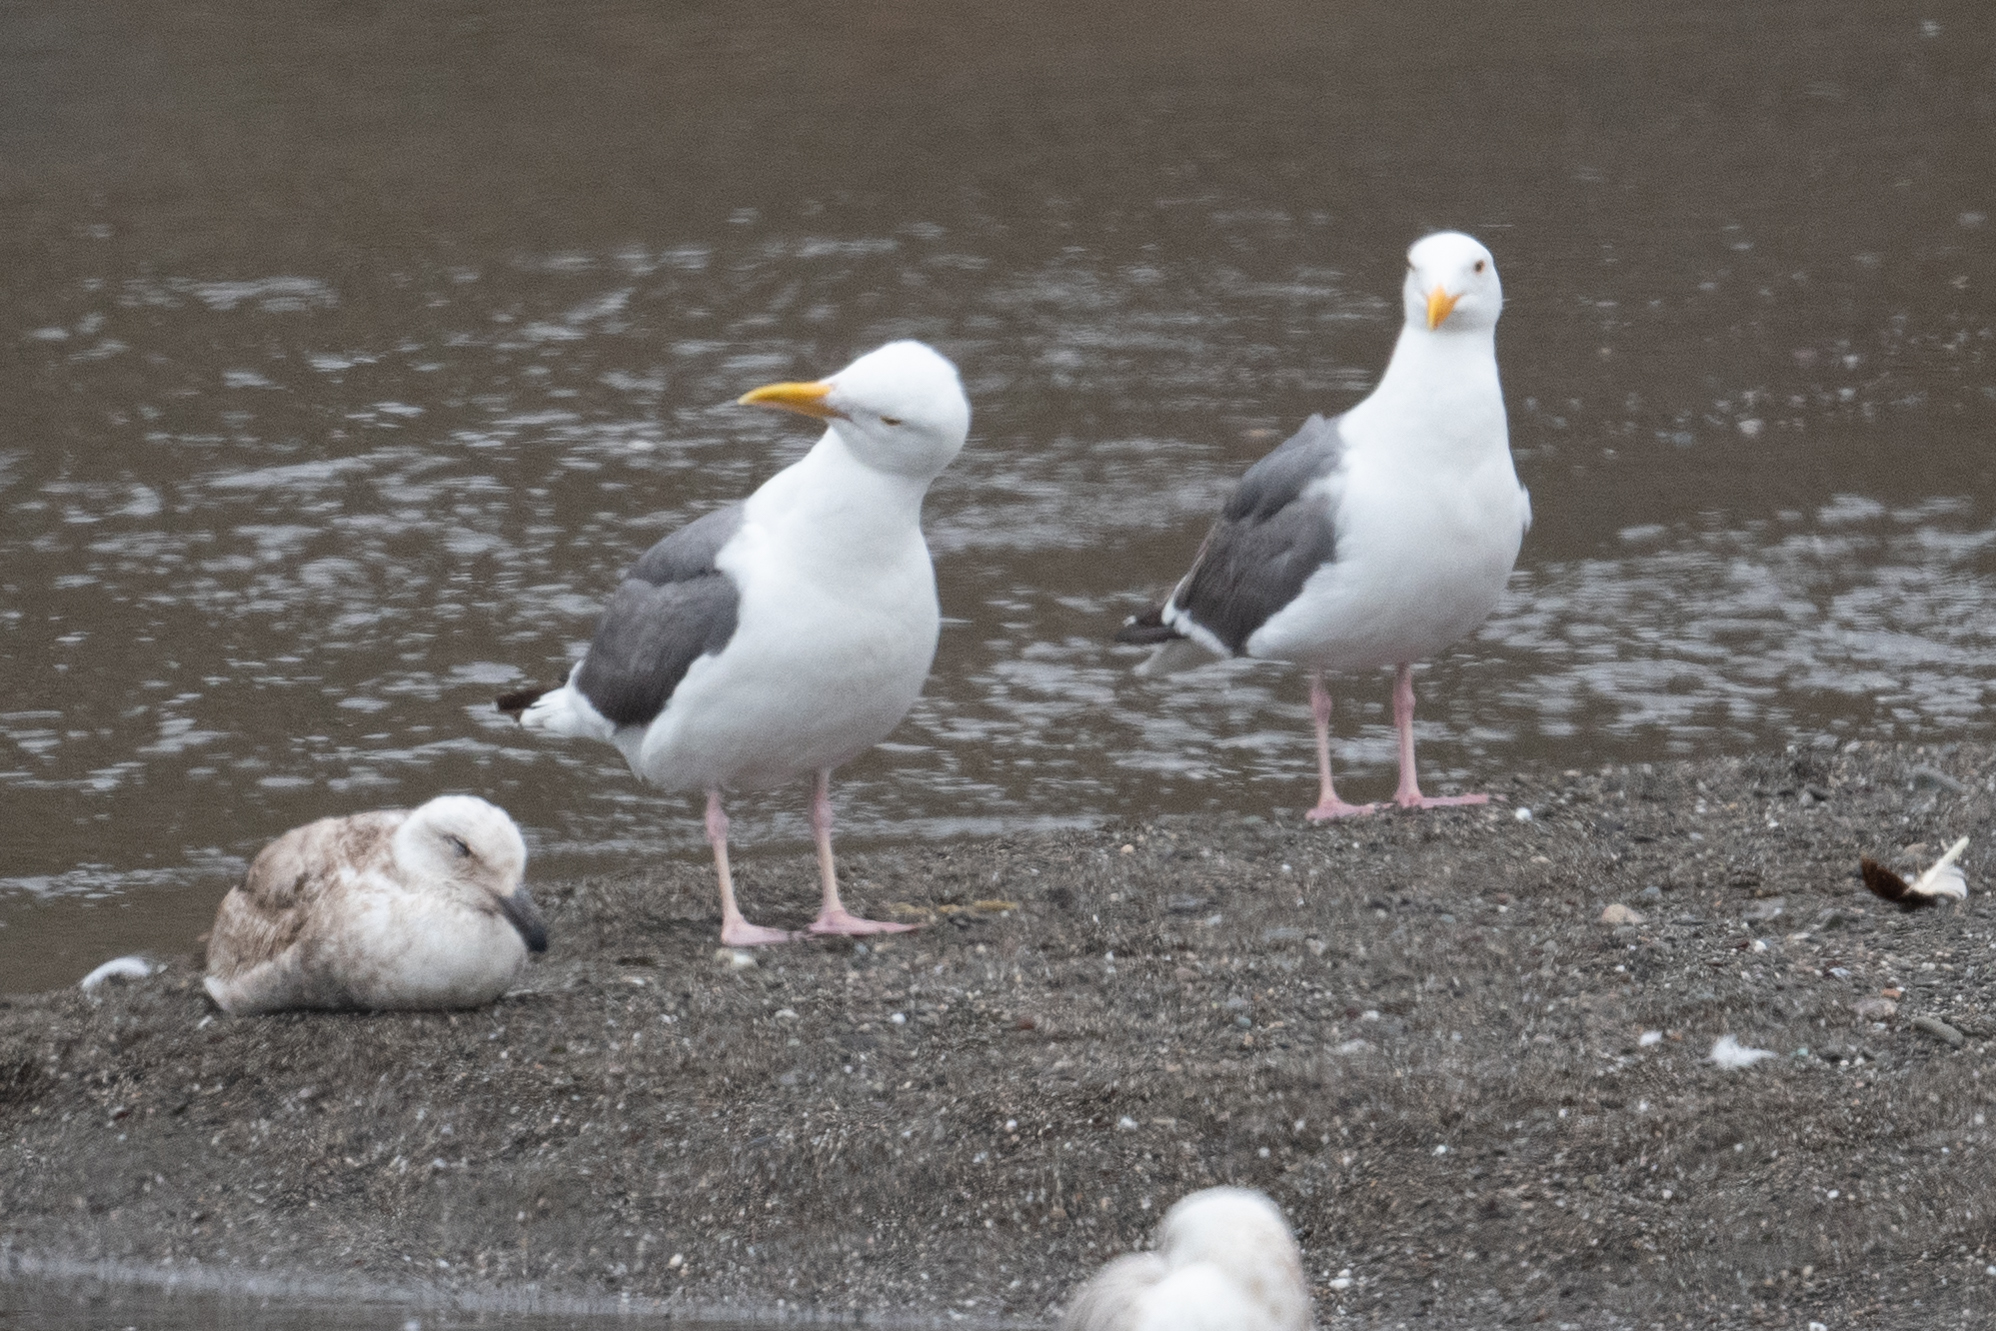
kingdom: Animalia
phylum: Chordata
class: Aves
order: Charadriiformes
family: Laridae
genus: Larus
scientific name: Larus occidentalis
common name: Western gull
